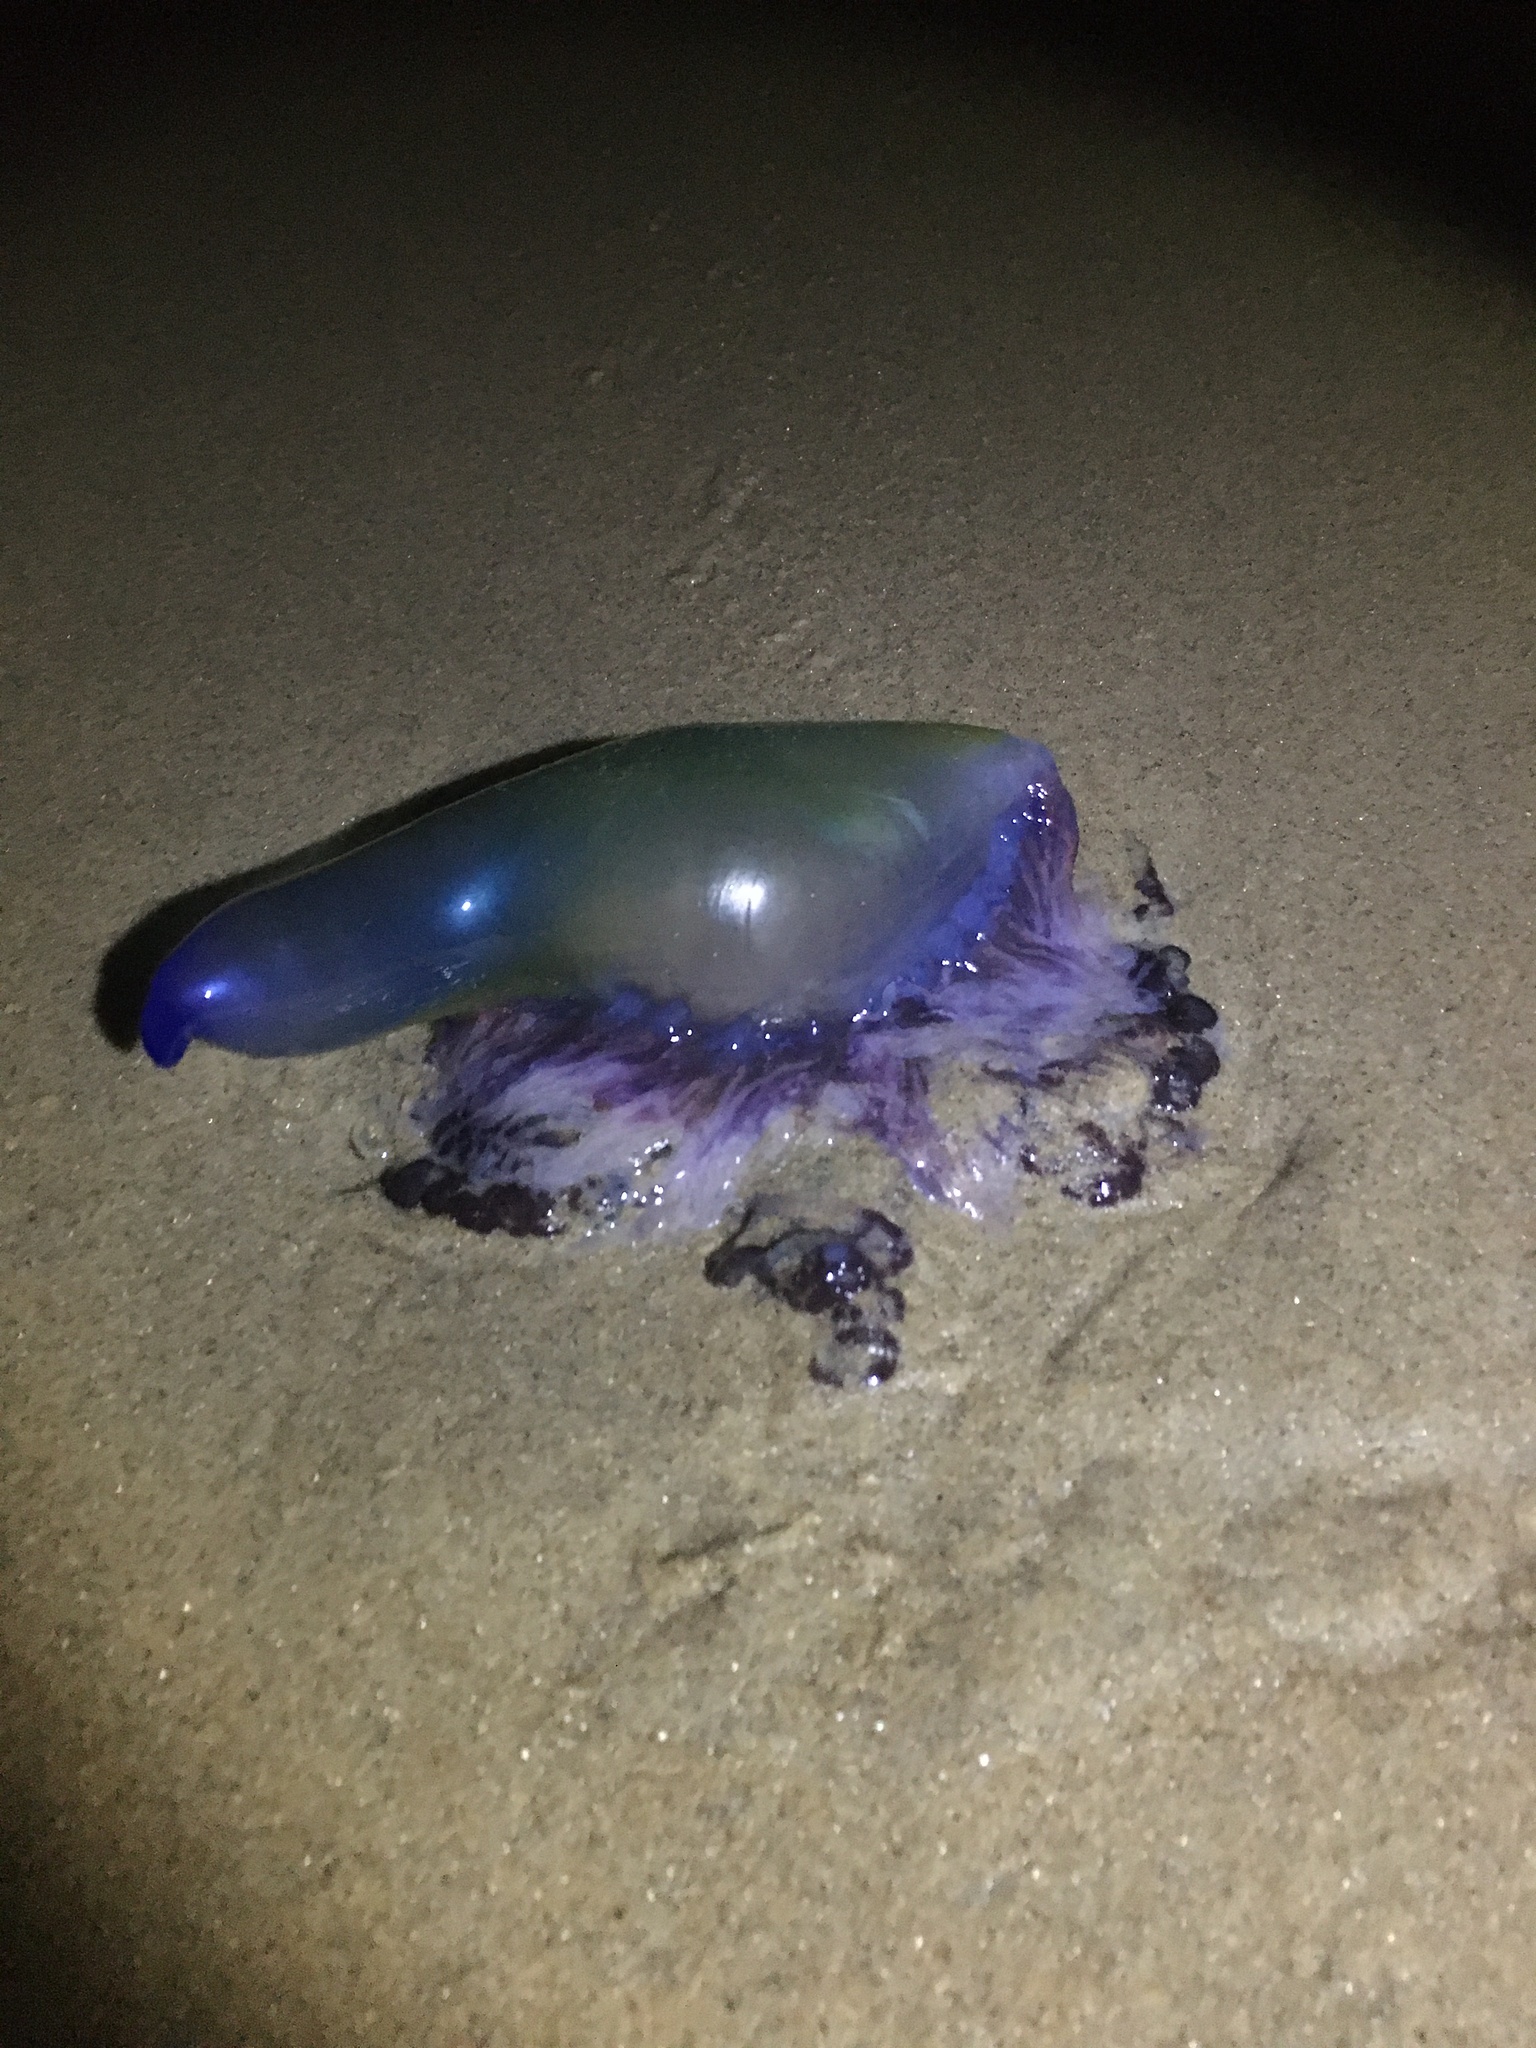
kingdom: Animalia
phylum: Cnidaria
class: Hydrozoa
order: Siphonophorae
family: Physaliidae
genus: Physalia
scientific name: Physalia physalis
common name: Portuguese man-of-war
